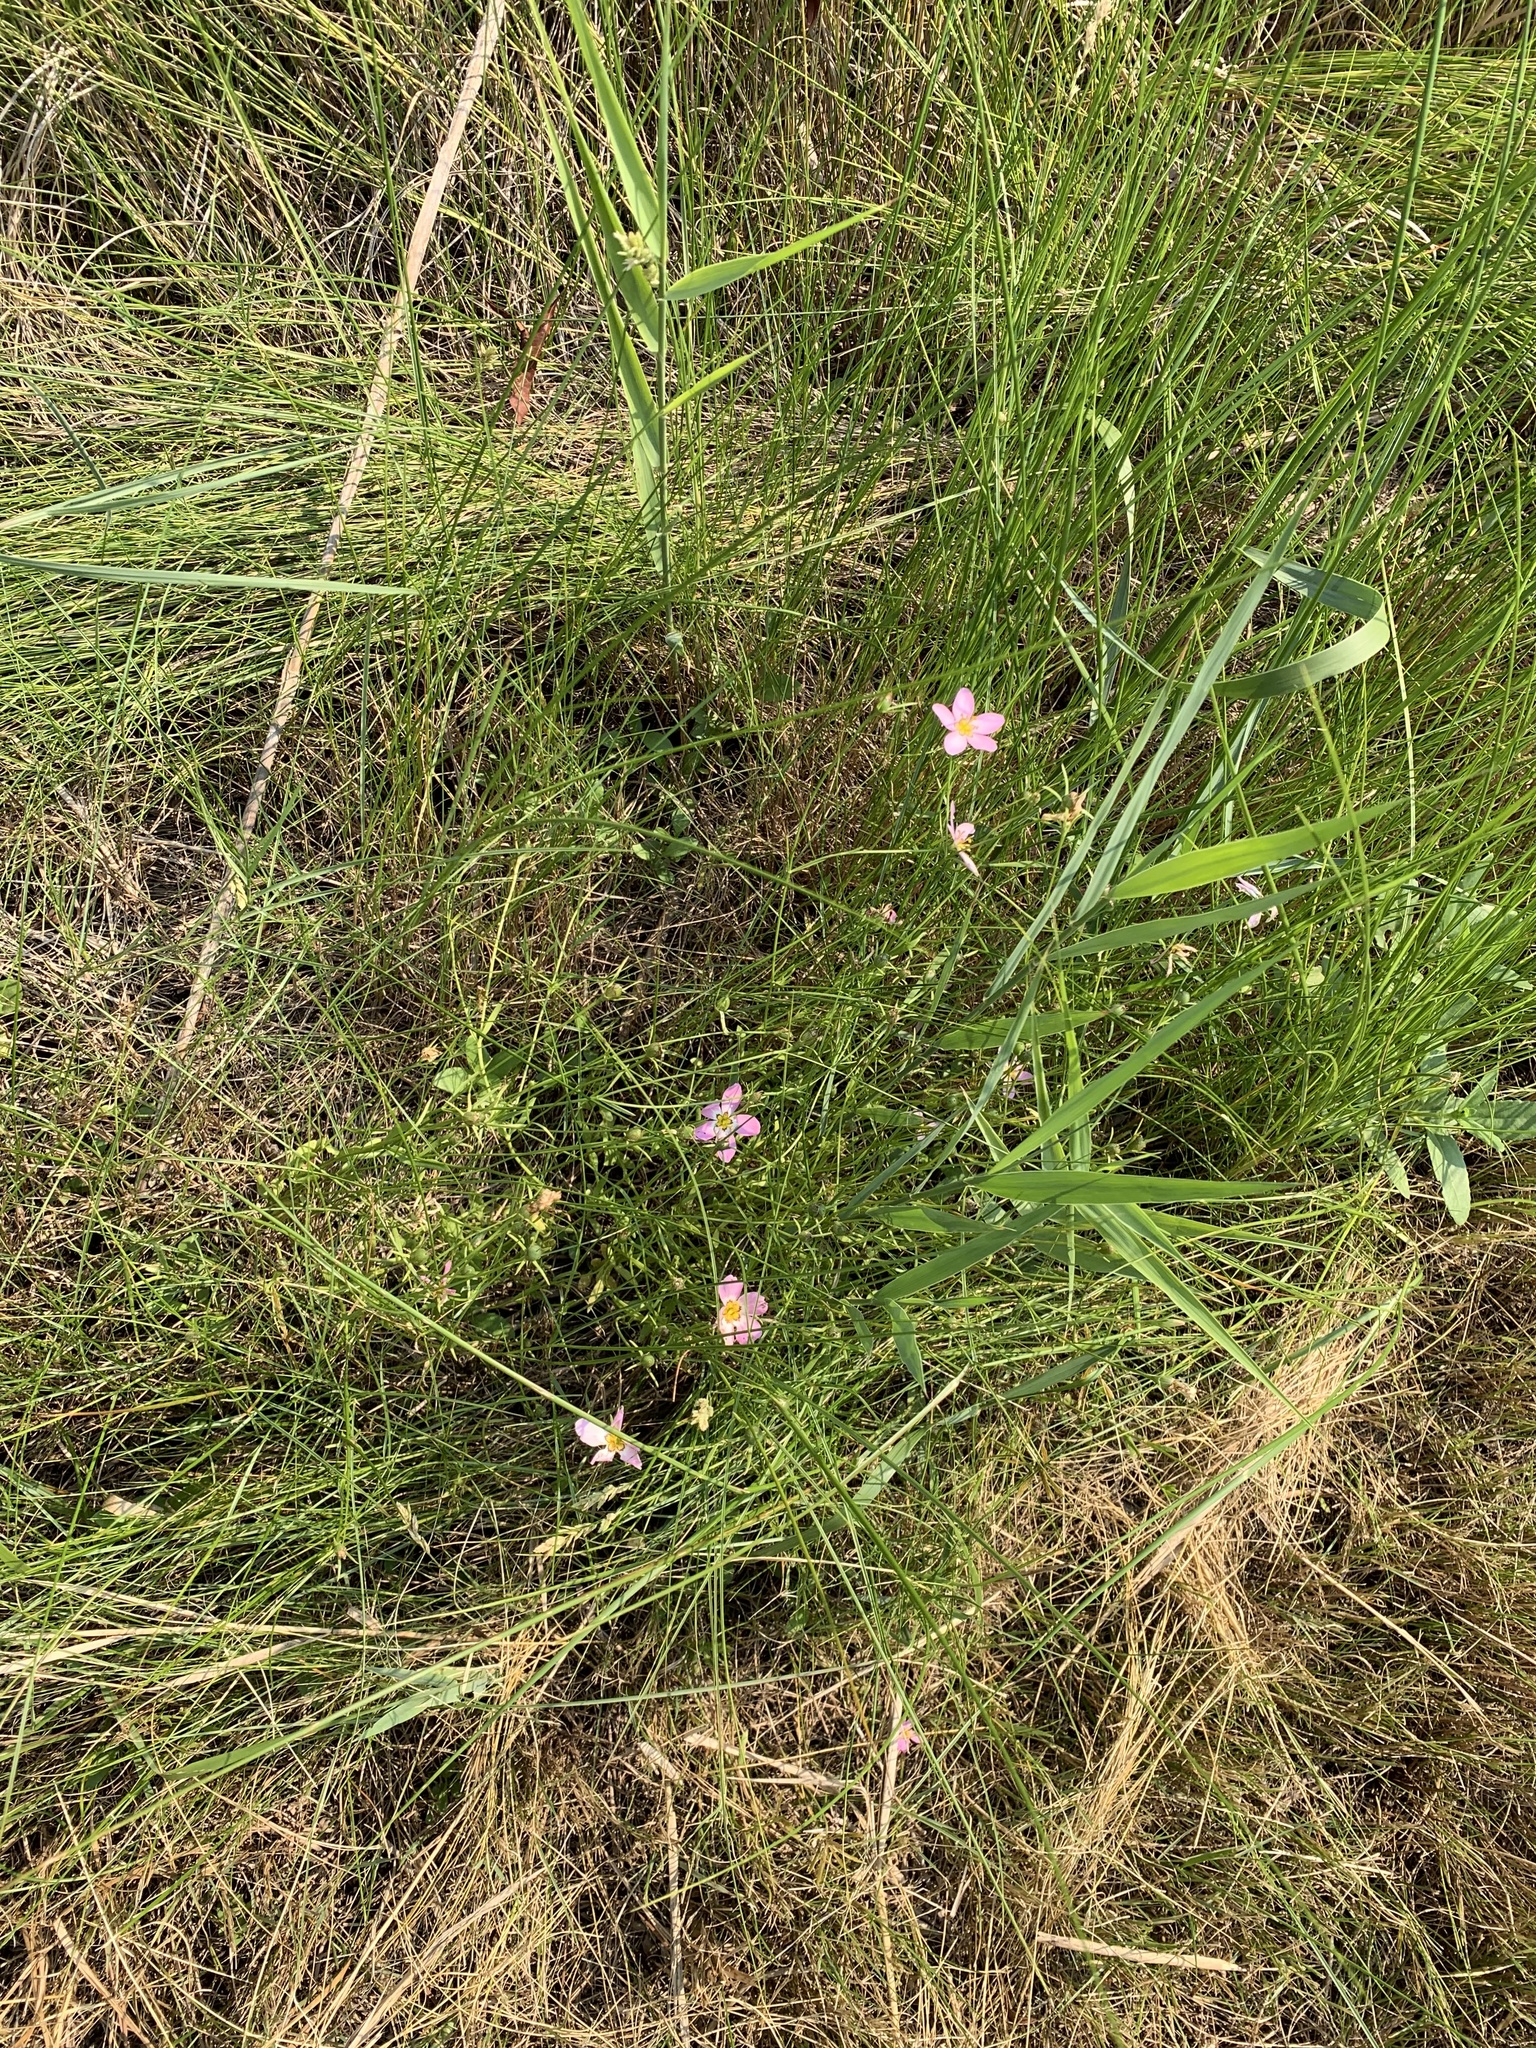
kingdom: Plantae
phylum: Tracheophyta
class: Magnoliopsida
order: Gentianales
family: Gentianaceae
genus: Sabatia
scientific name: Sabatia stellaris
